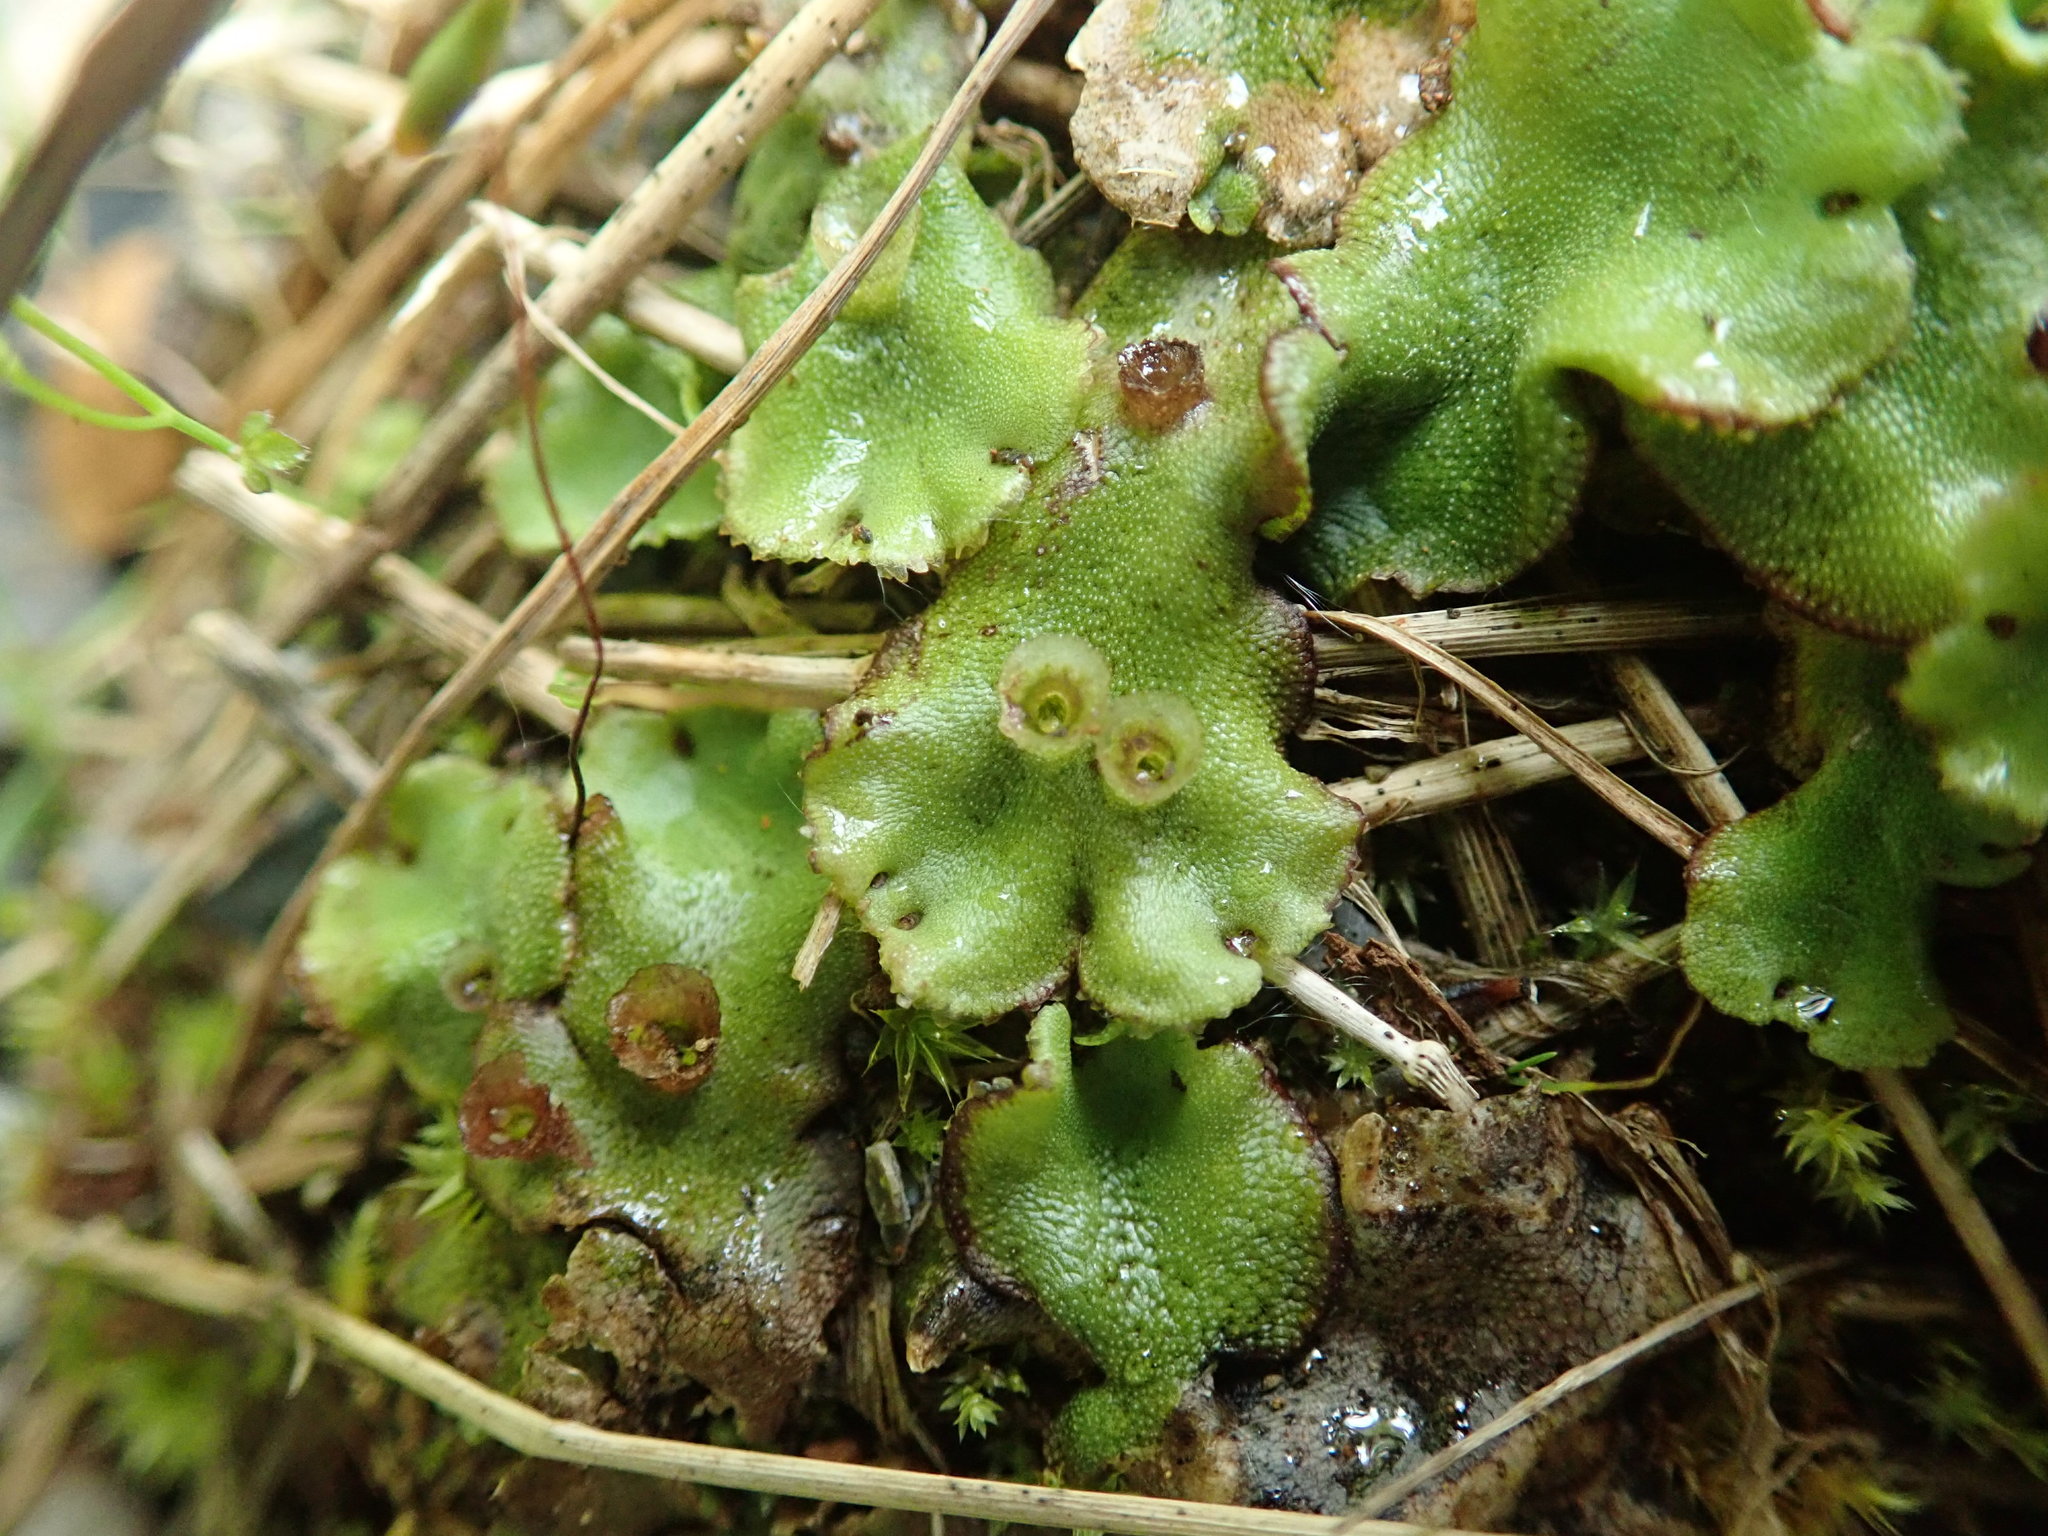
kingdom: Plantae
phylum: Marchantiophyta
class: Marchantiopsida
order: Marchantiales
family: Marchantiaceae
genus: Marchantia
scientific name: Marchantia polymorpha
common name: Common liverwort
